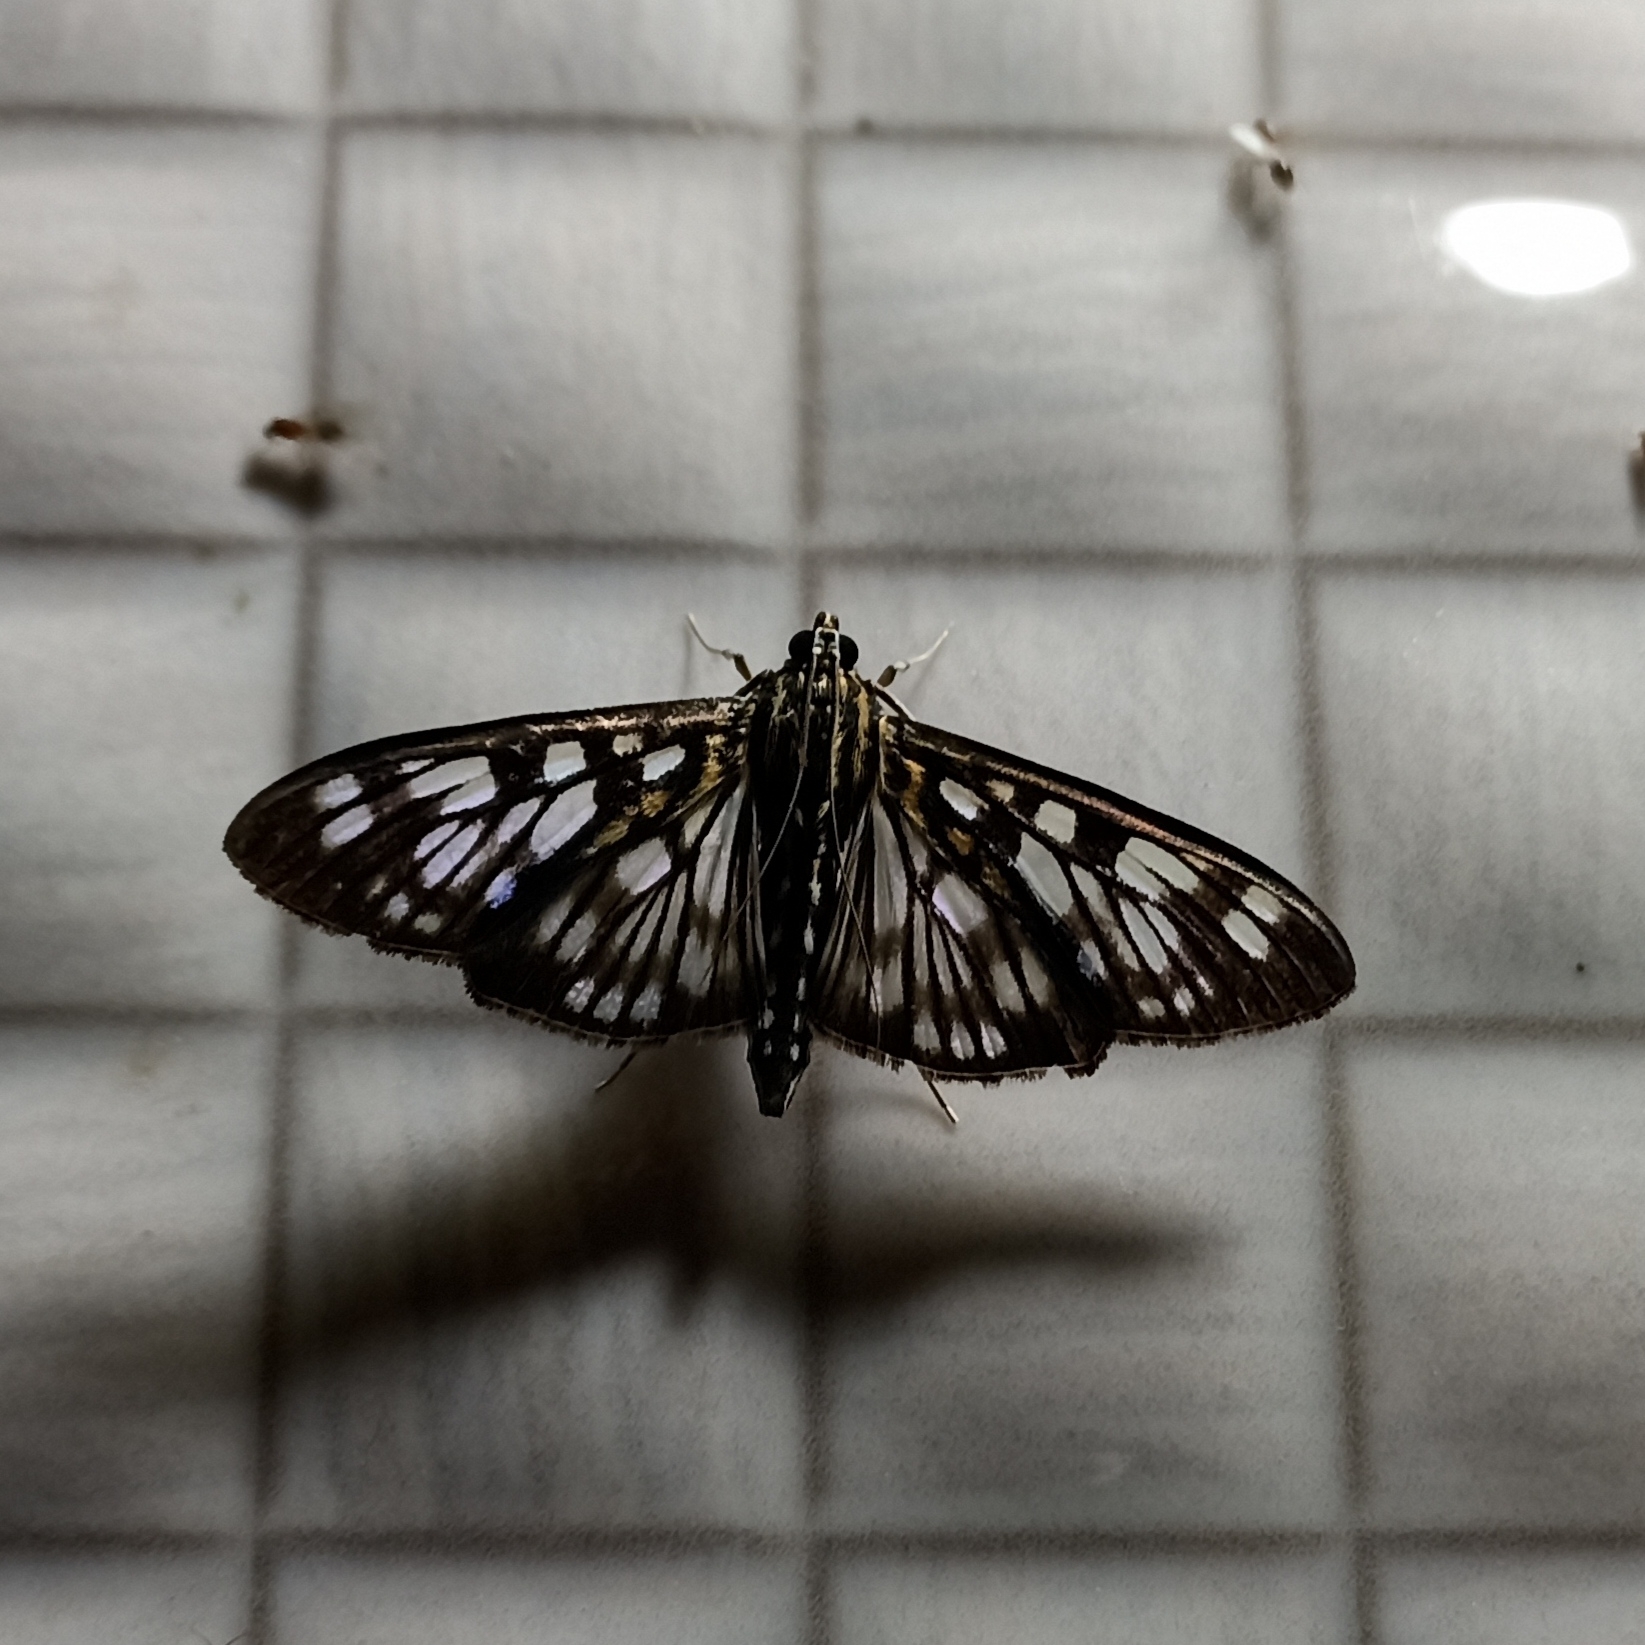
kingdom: Animalia
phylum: Arthropoda
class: Insecta
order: Lepidoptera
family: Crambidae
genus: Pygospila
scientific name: Pygospila tyres
